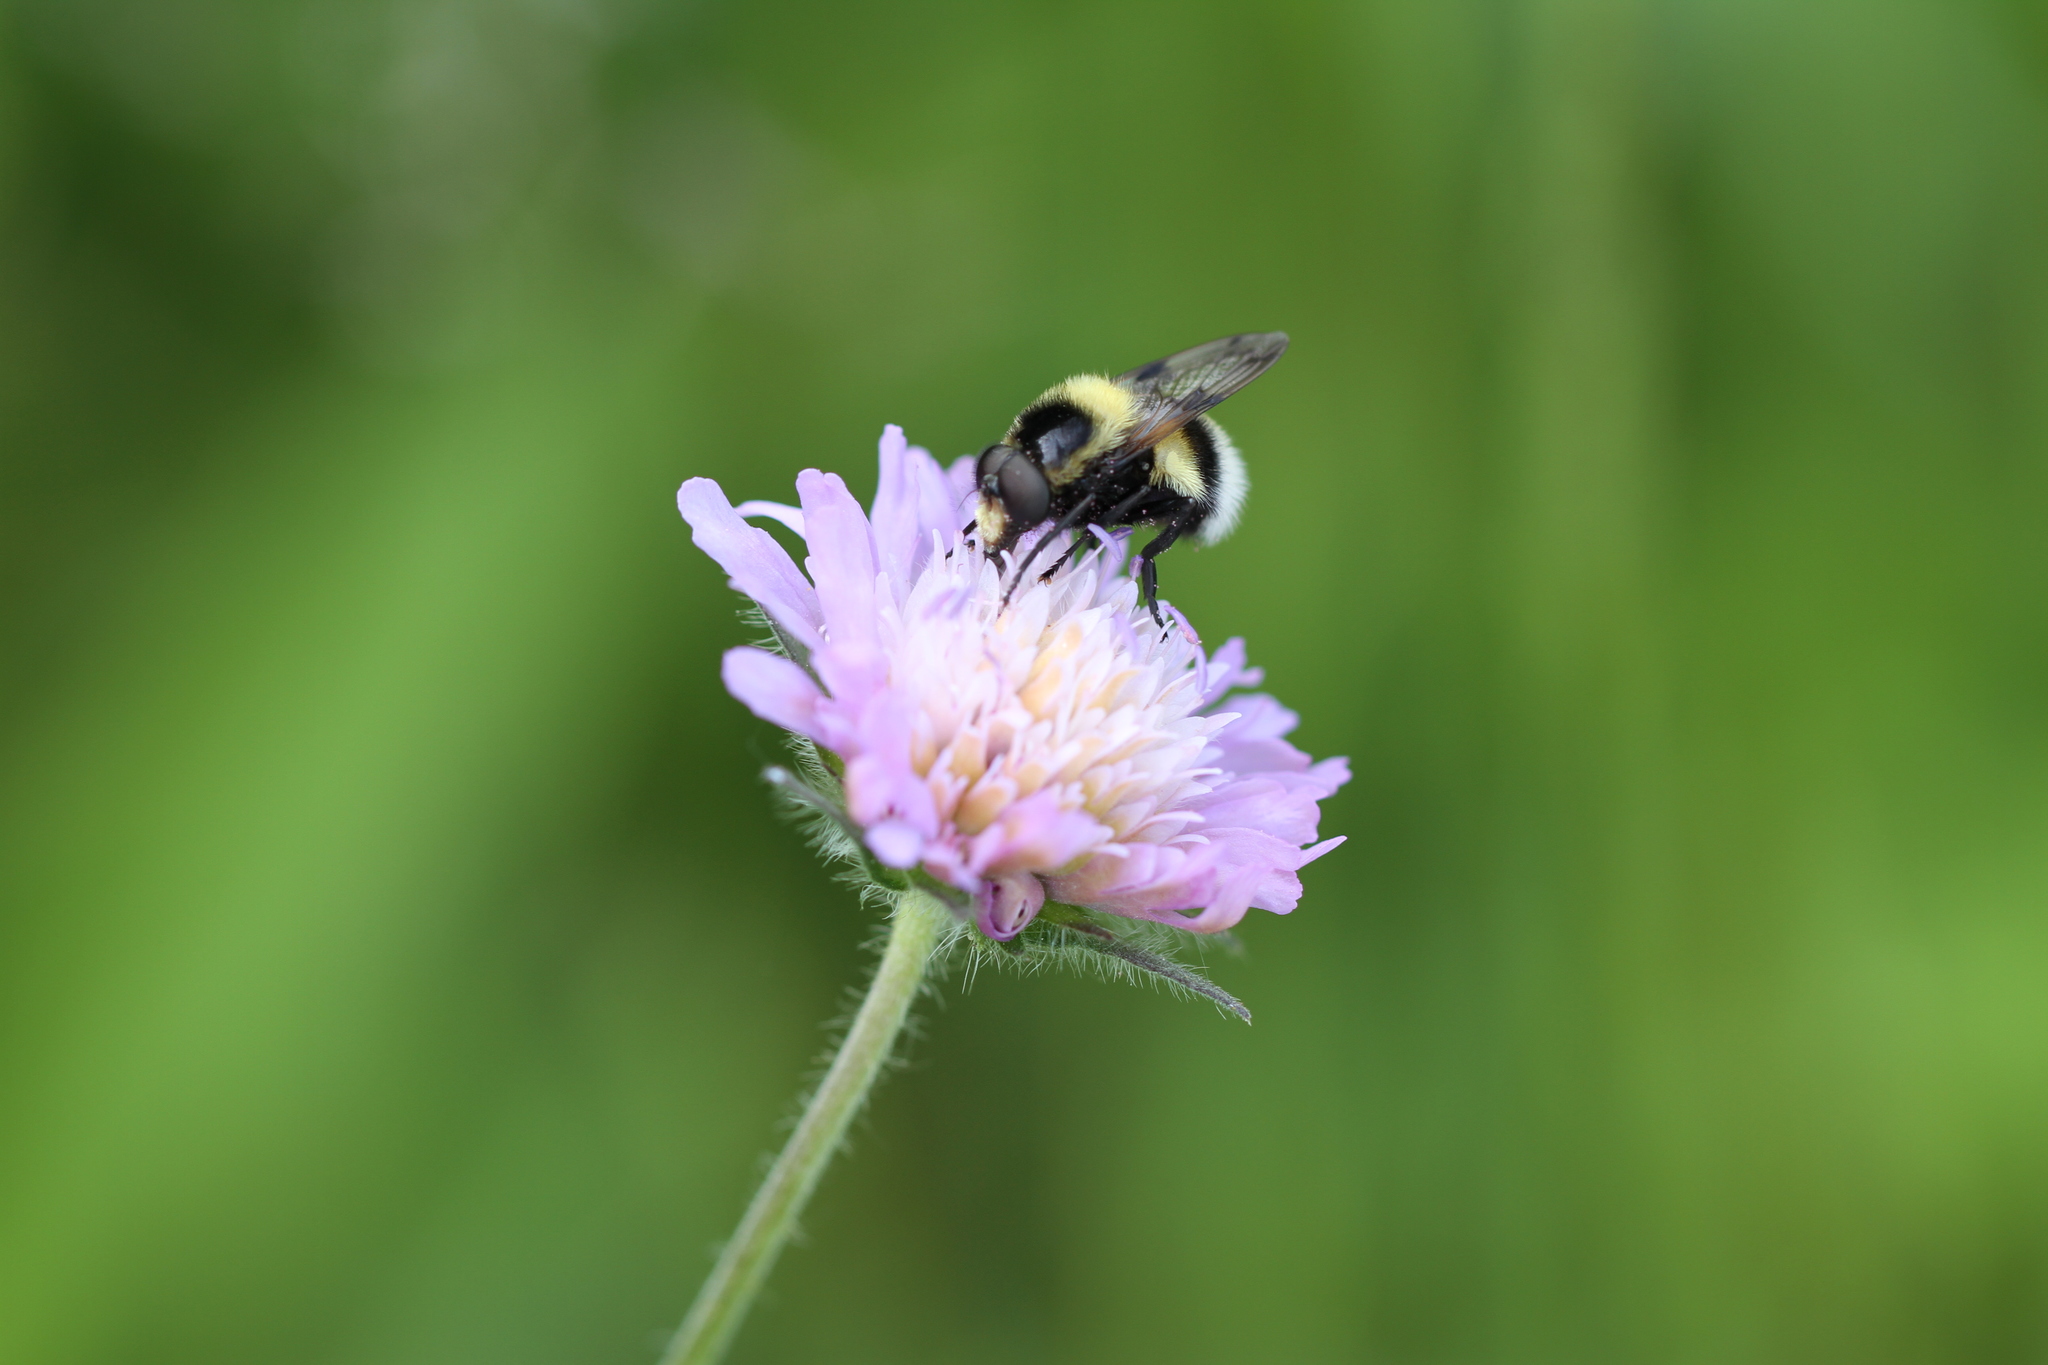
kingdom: Animalia
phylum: Arthropoda
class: Insecta
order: Diptera
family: Syrphidae
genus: Volucella
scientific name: Volucella bombylans
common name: Bumble bee hover fly
